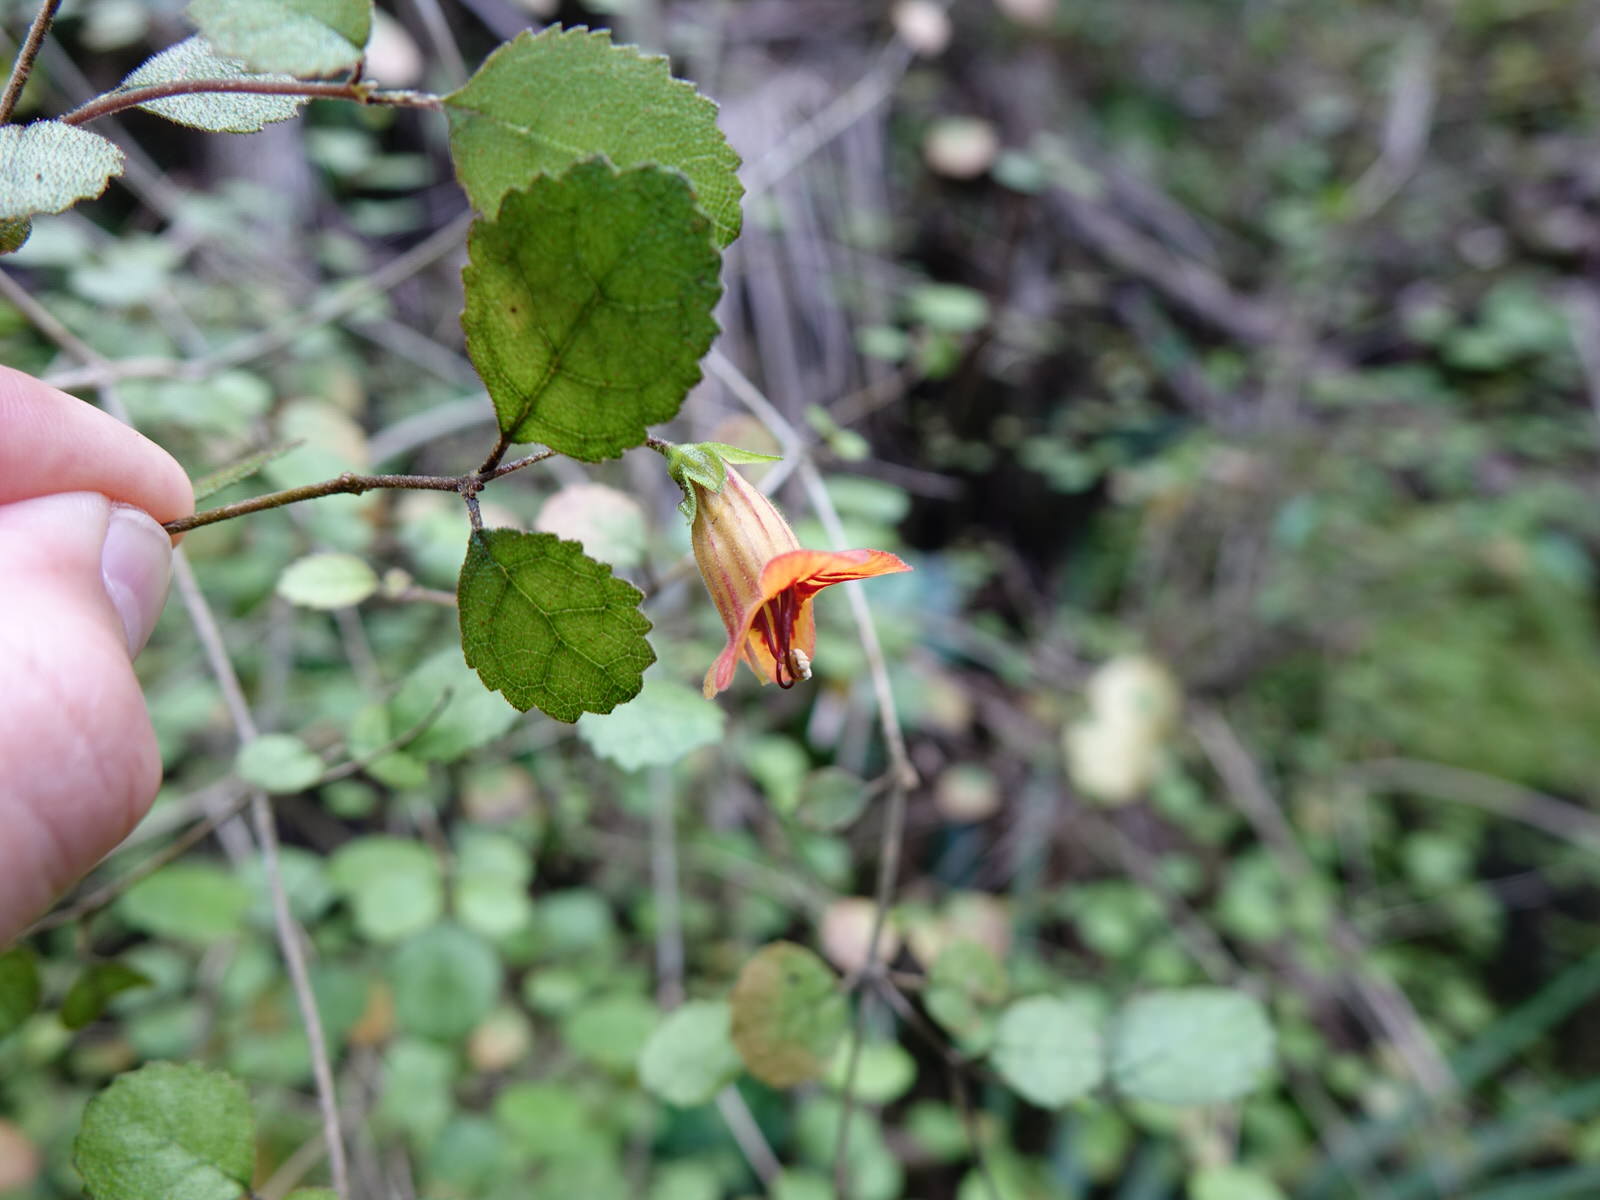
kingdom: Plantae
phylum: Tracheophyta
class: Magnoliopsida
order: Lamiales
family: Gesneriaceae
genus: Rhabdothamnus
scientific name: Rhabdothamnus solandri
